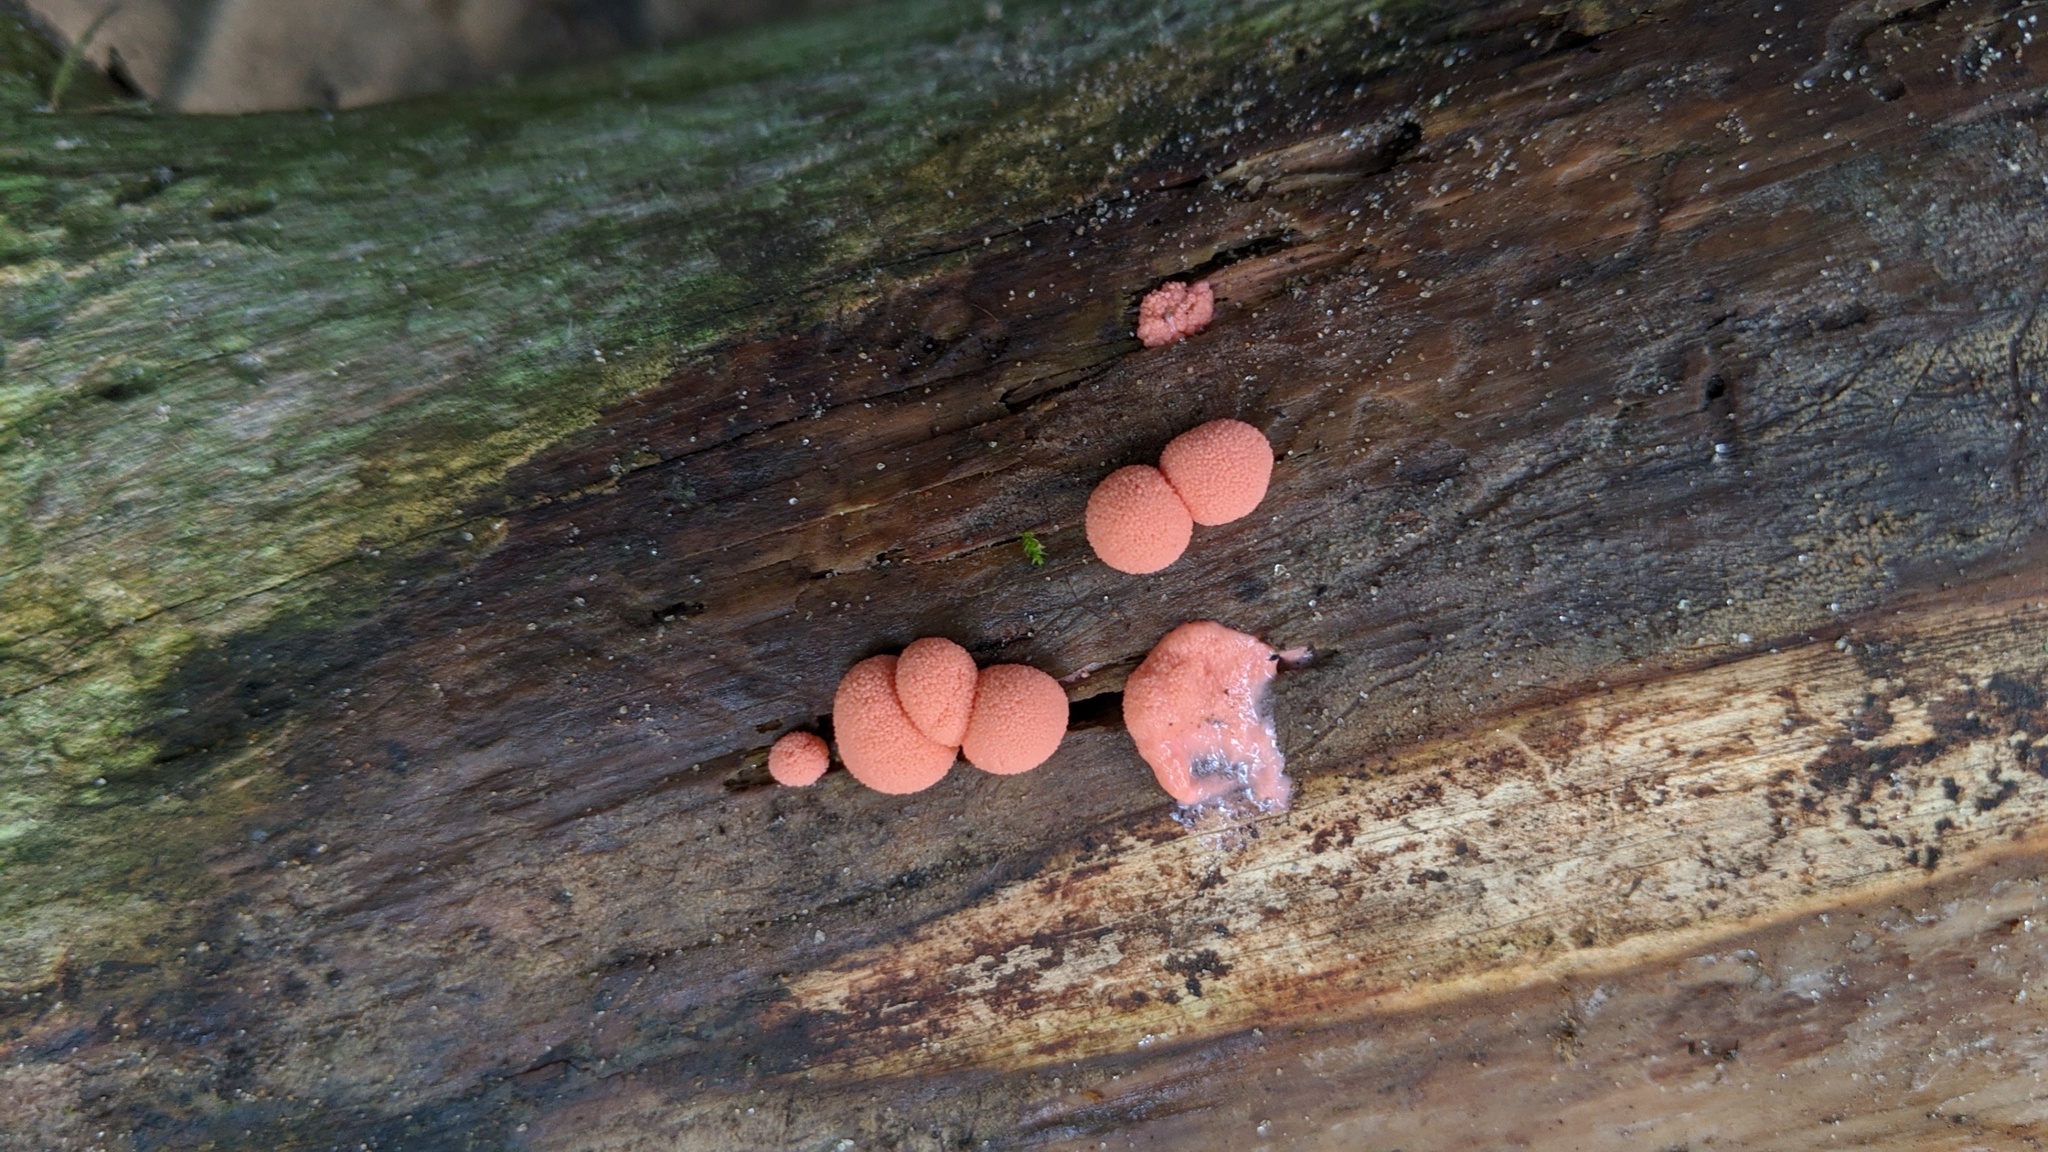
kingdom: Protozoa
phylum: Mycetozoa
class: Myxomycetes
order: Cribrariales
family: Tubiferaceae
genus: Lycogala
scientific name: Lycogala epidendrum
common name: Wolf's milk
